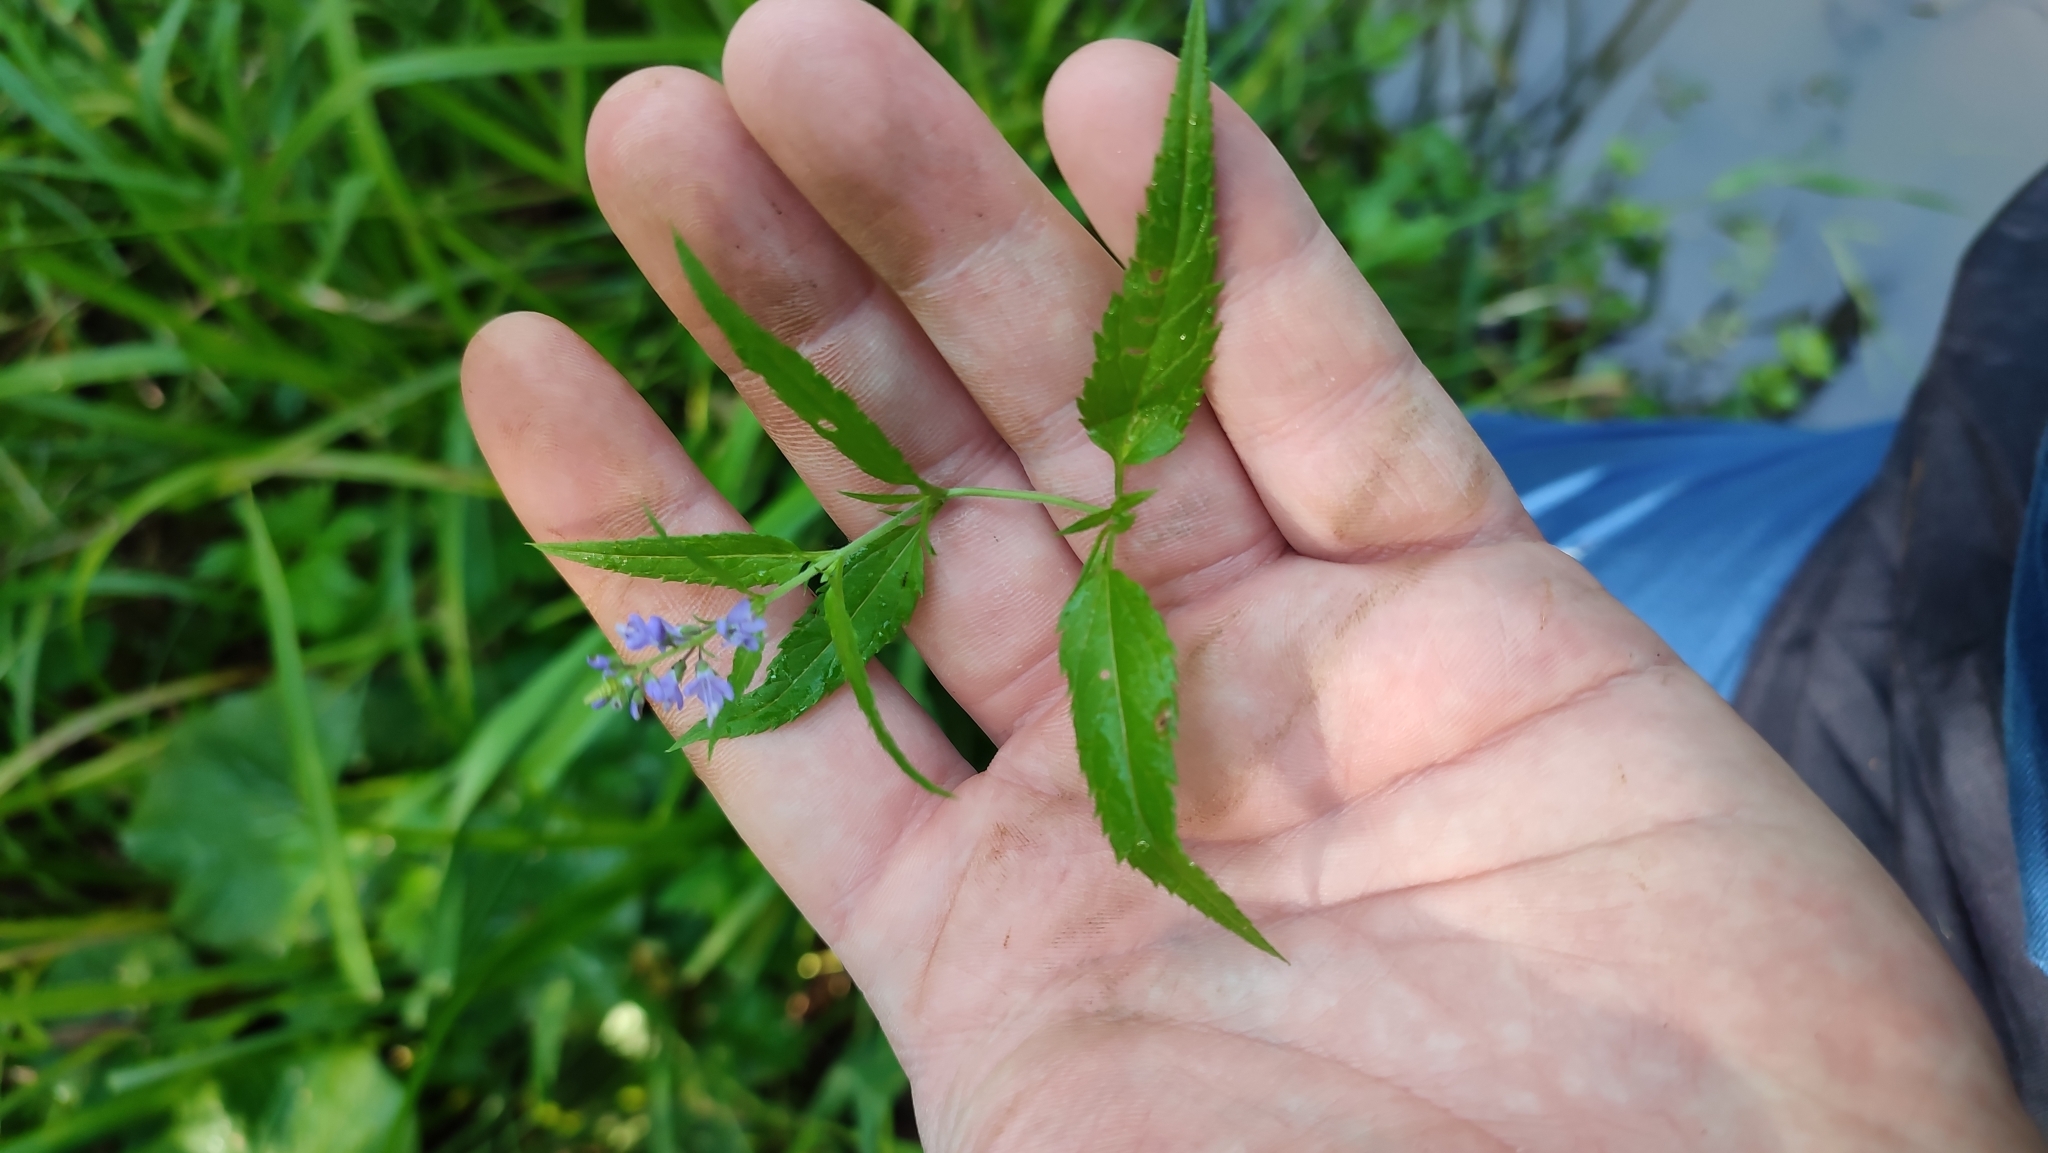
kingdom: Plantae
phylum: Tracheophyta
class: Magnoliopsida
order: Lamiales
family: Plantaginaceae
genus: Veronica
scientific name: Veronica longifolia
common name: Garden speedwell
